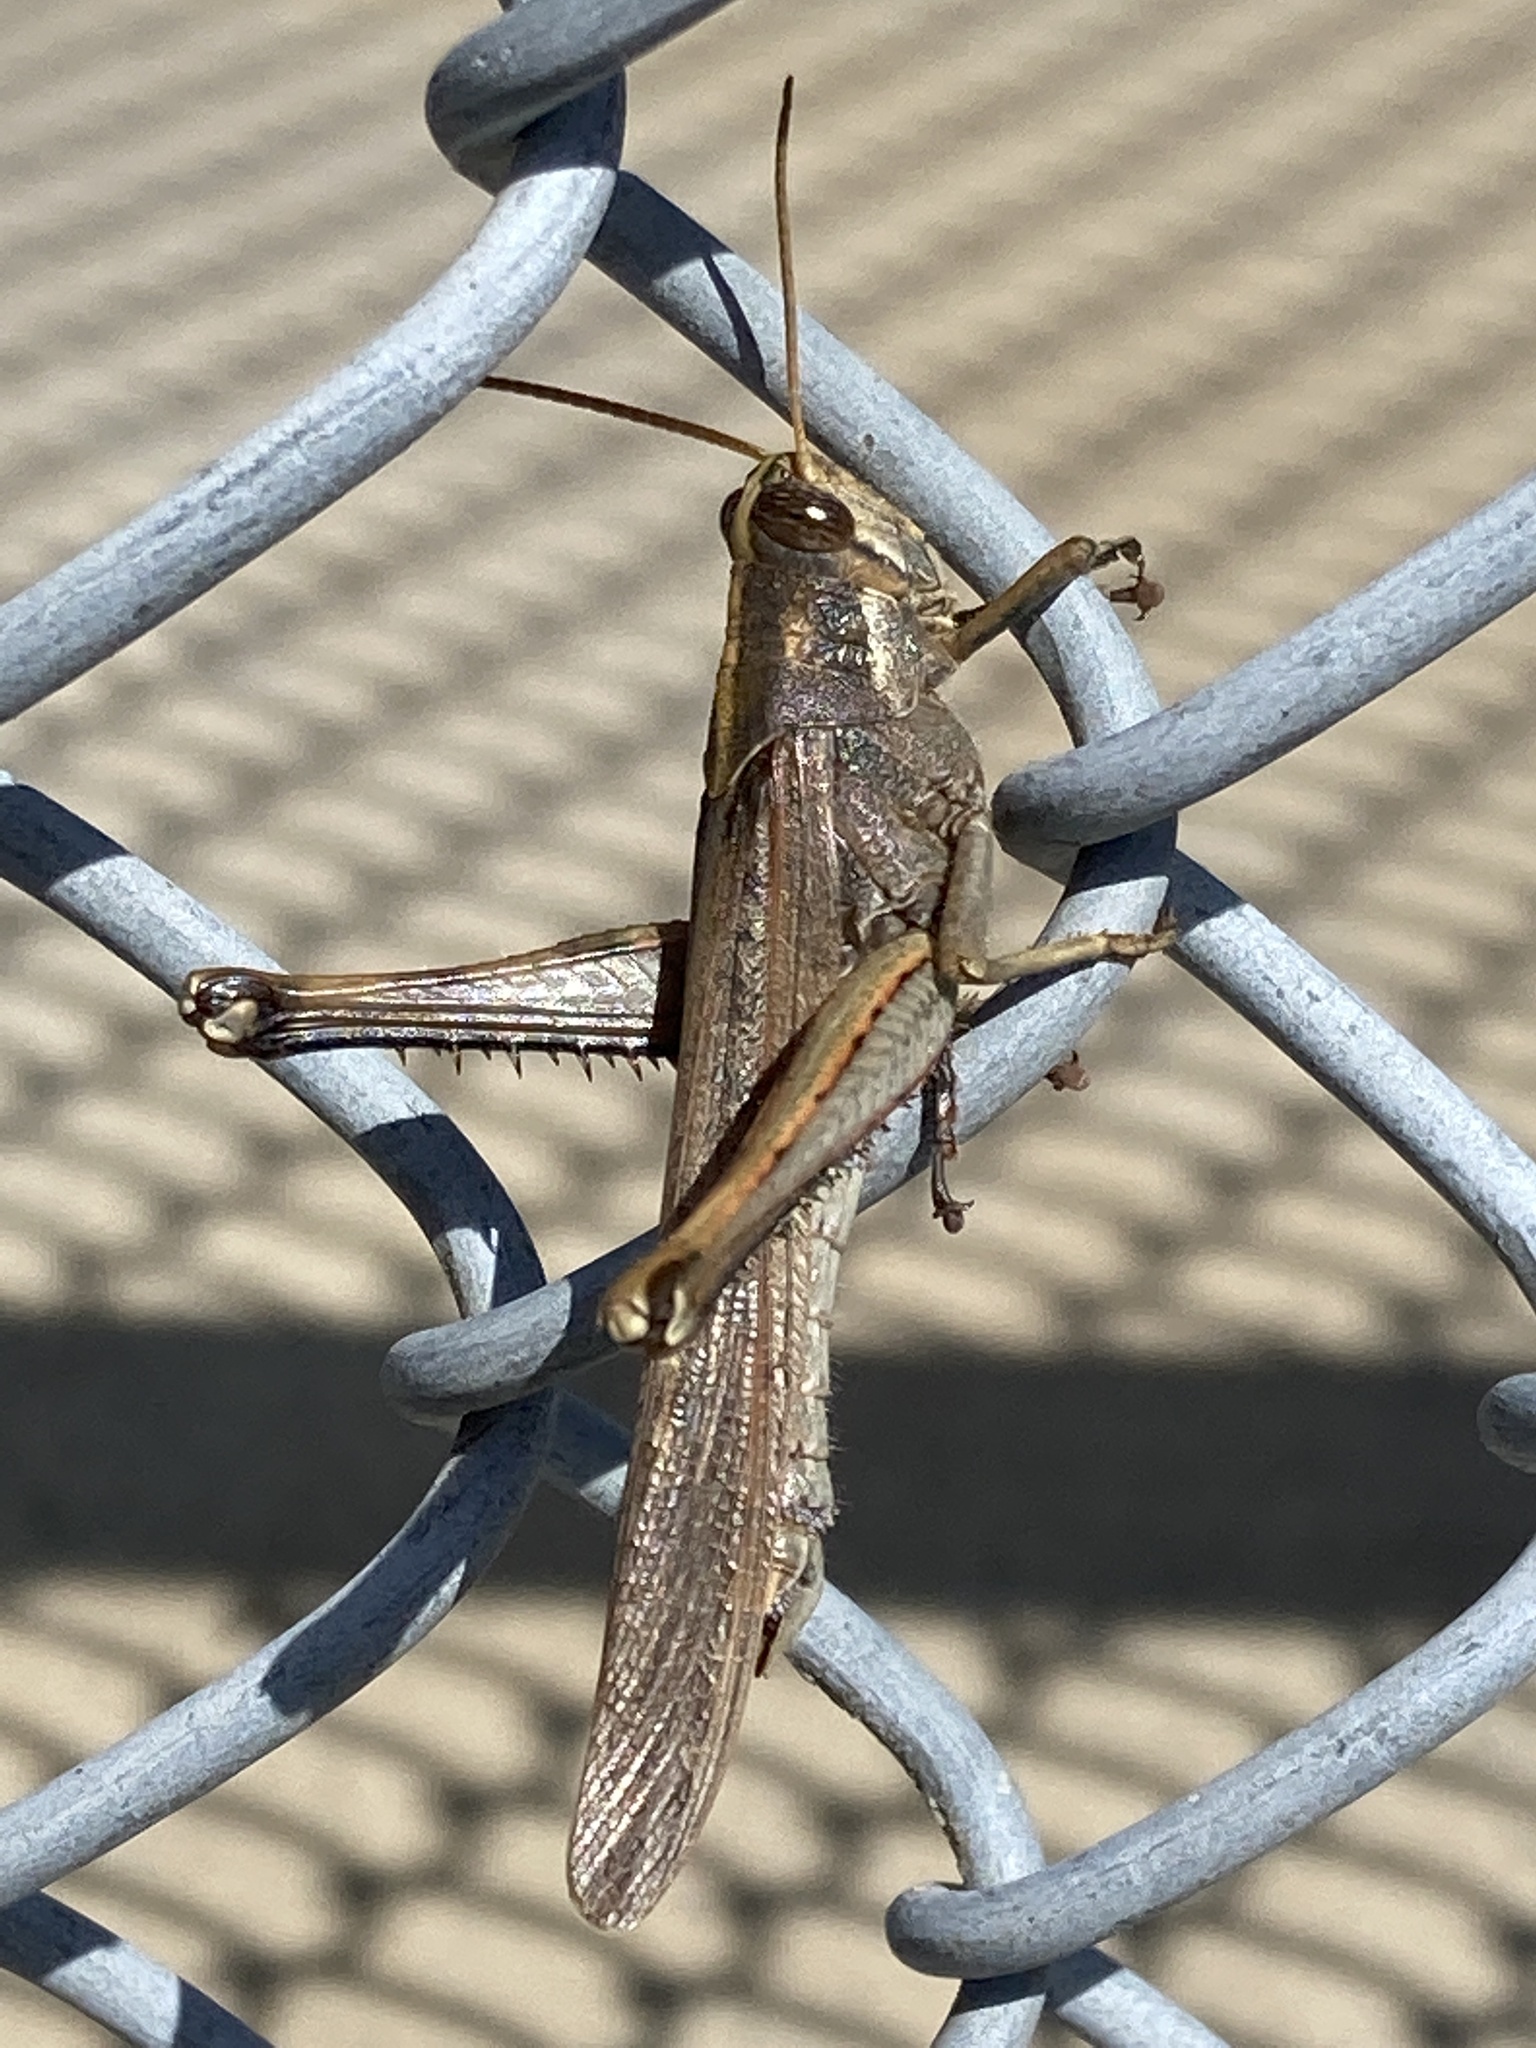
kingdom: Animalia
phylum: Arthropoda
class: Insecta
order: Orthoptera
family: Acrididae
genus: Schistocerca
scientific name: Schistocerca nitens
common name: Vagrant grasshopper
